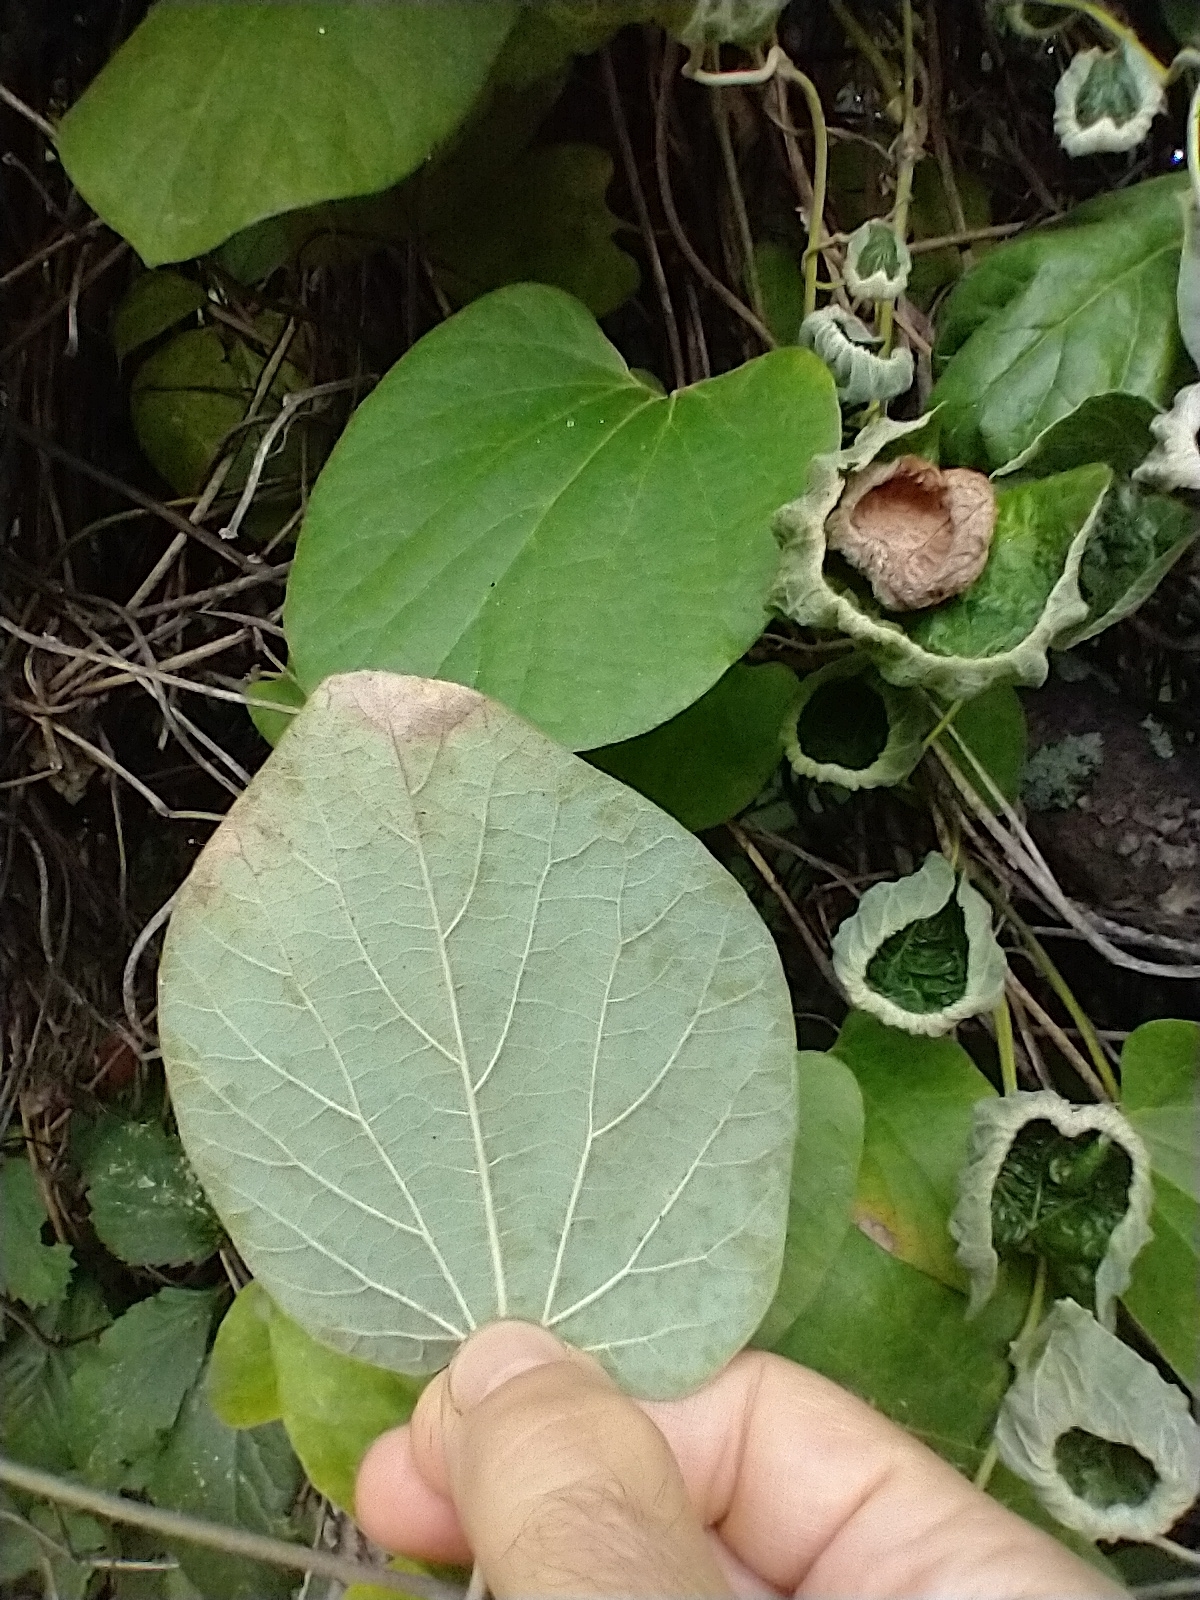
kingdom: Plantae
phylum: Tracheophyta
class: Magnoliopsida
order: Piperales
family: Aristolochiaceae
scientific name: Aristolochiaceae
